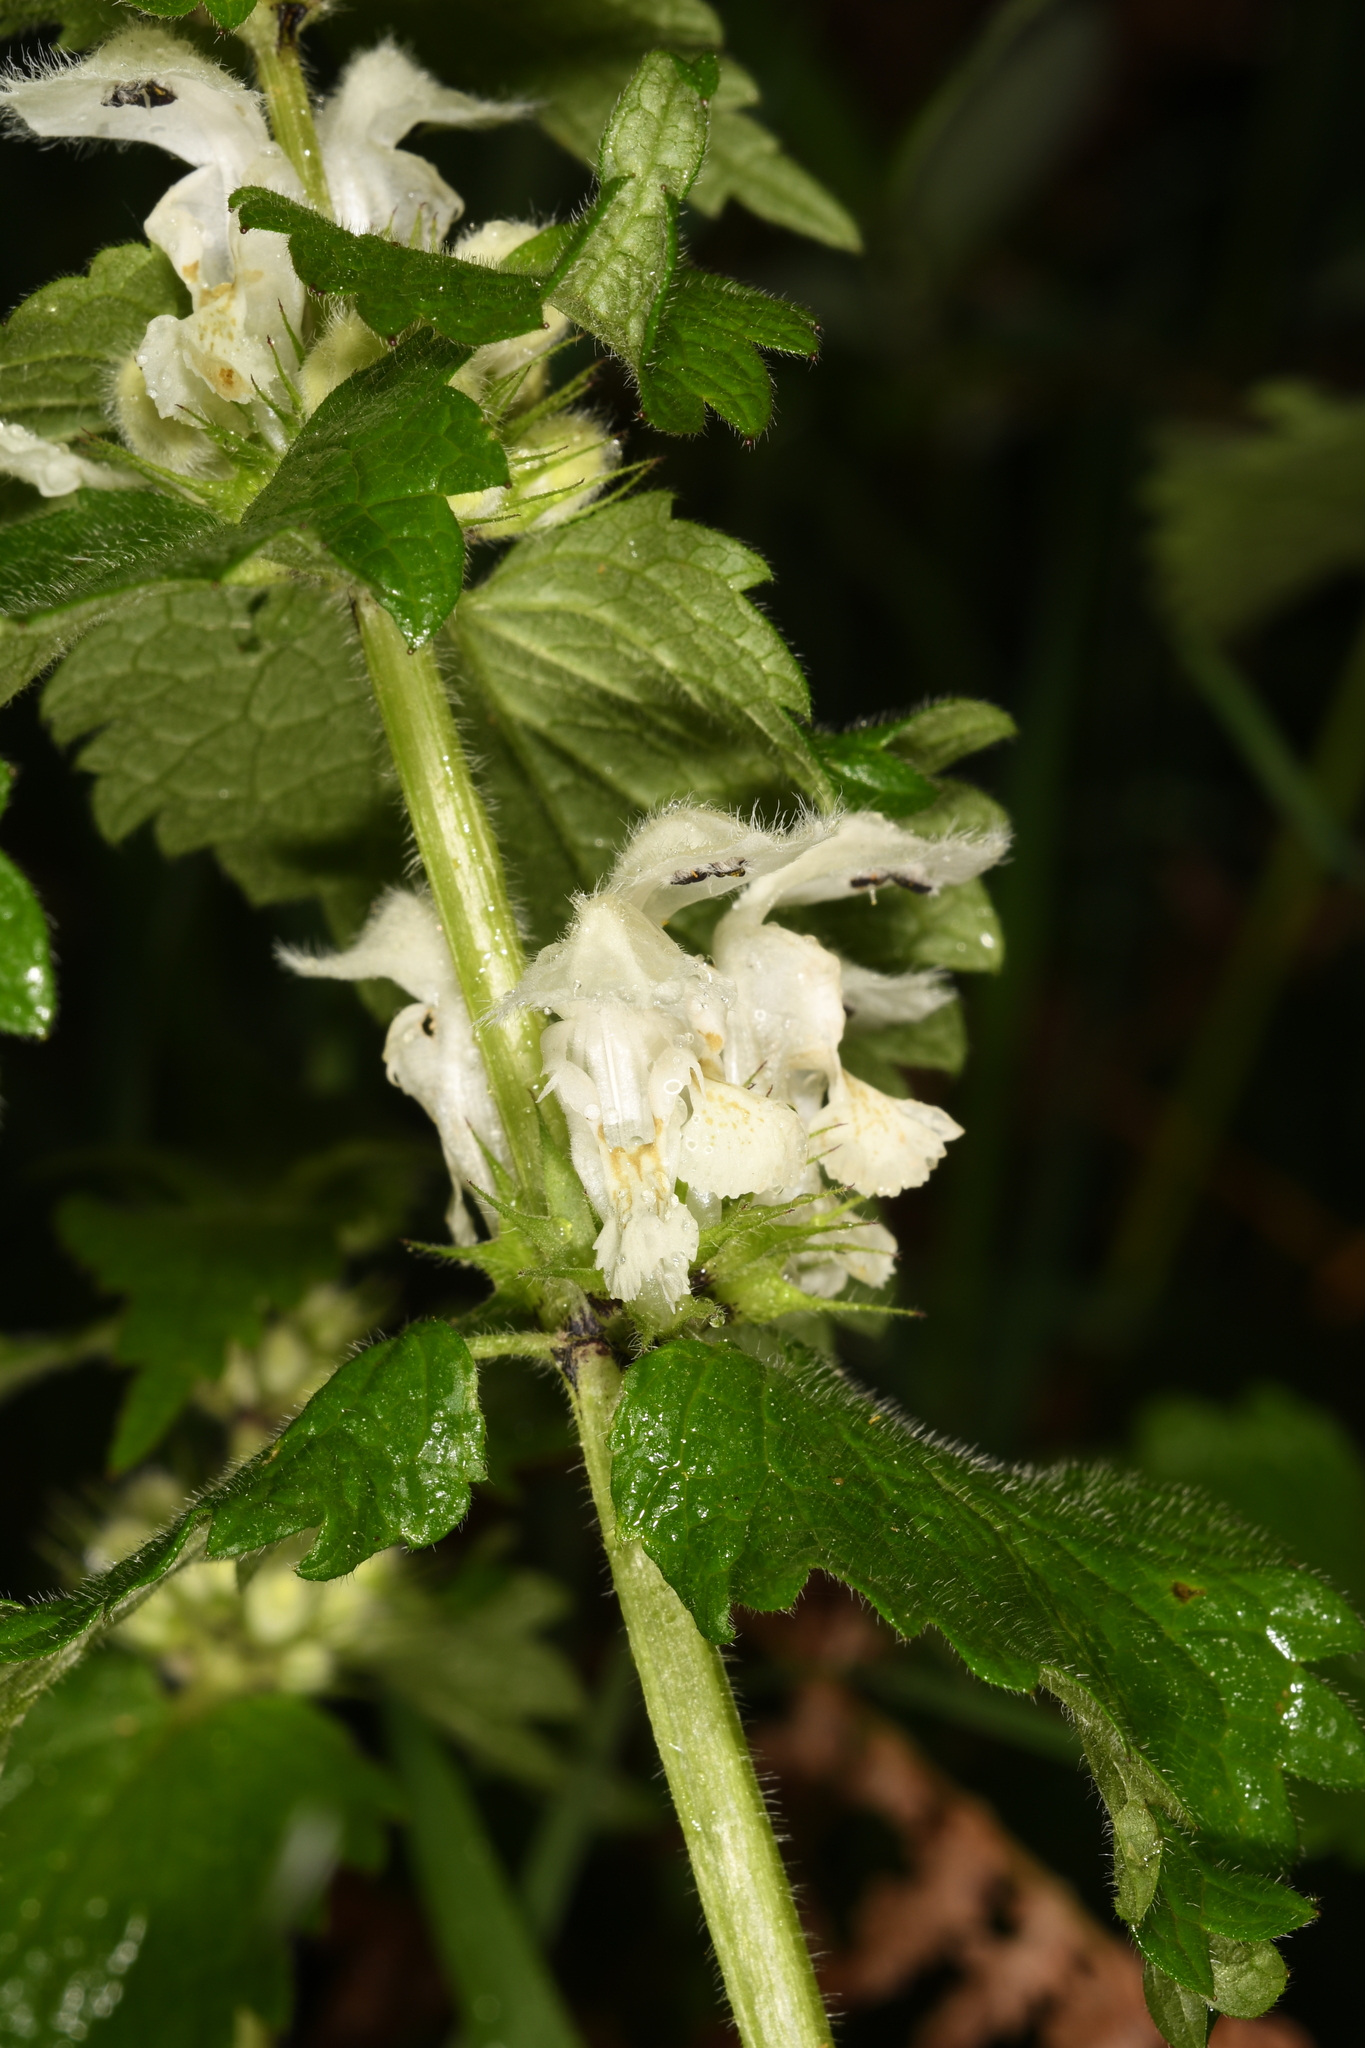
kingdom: Plantae
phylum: Tracheophyta
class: Magnoliopsida
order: Lamiales
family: Lamiaceae
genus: Lamium
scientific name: Lamium album
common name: White dead-nettle
